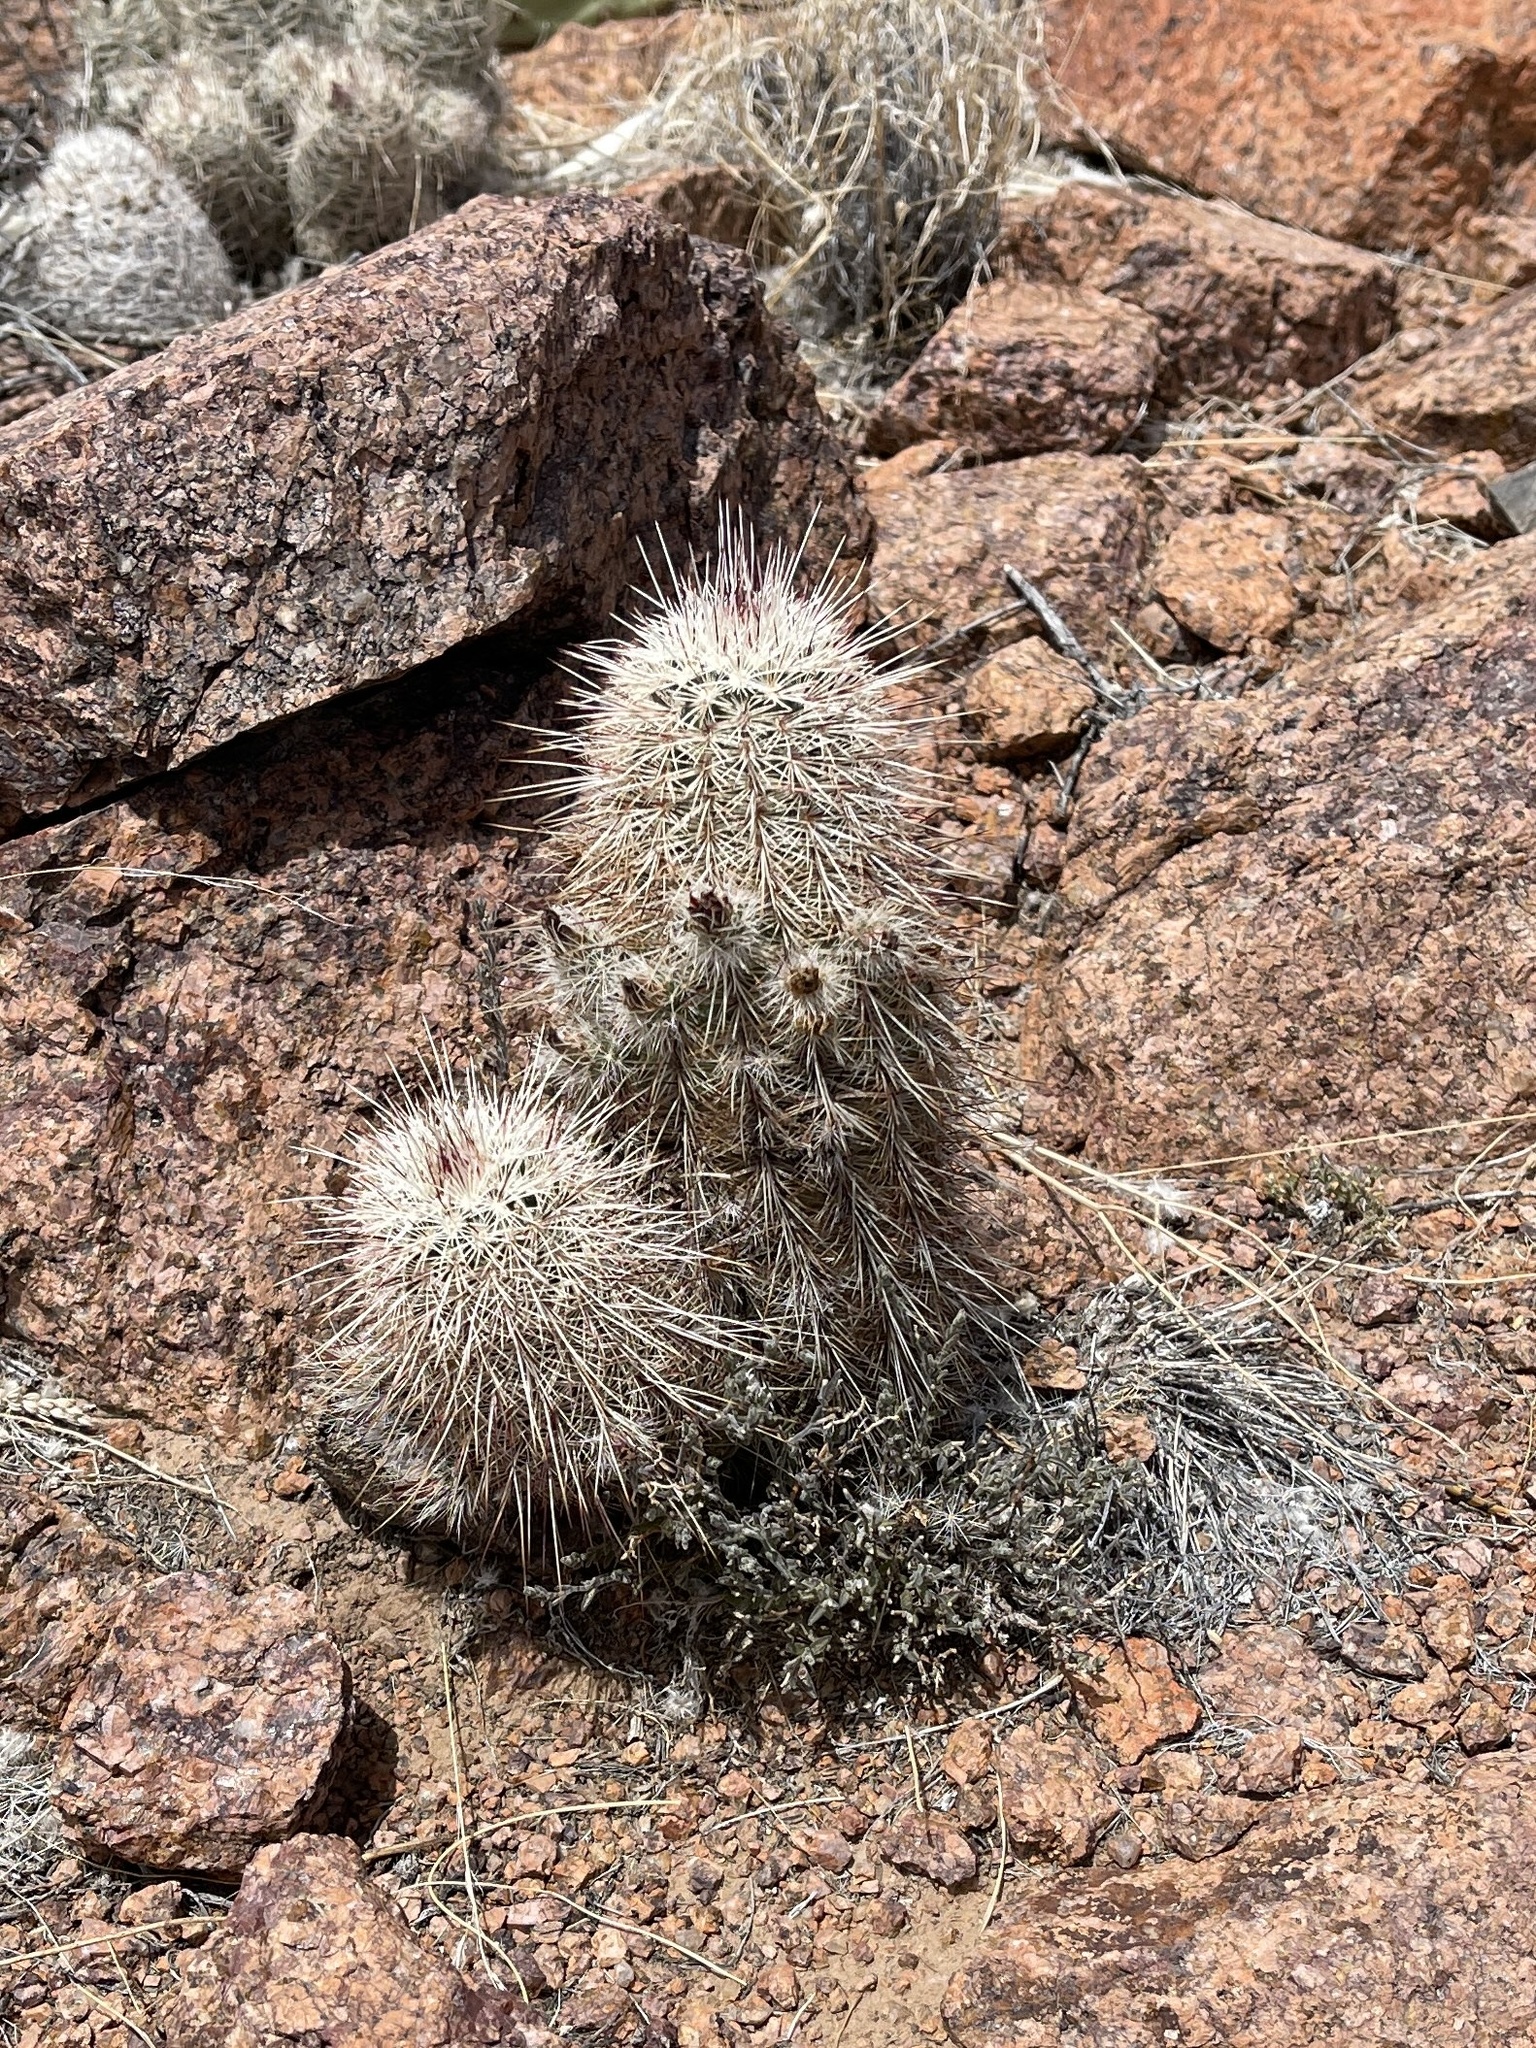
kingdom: Plantae
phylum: Tracheophyta
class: Magnoliopsida
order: Caryophyllales
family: Cactaceae
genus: Echinocereus
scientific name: Echinocereus viridiflorus
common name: Nylon hedgehog cactus
